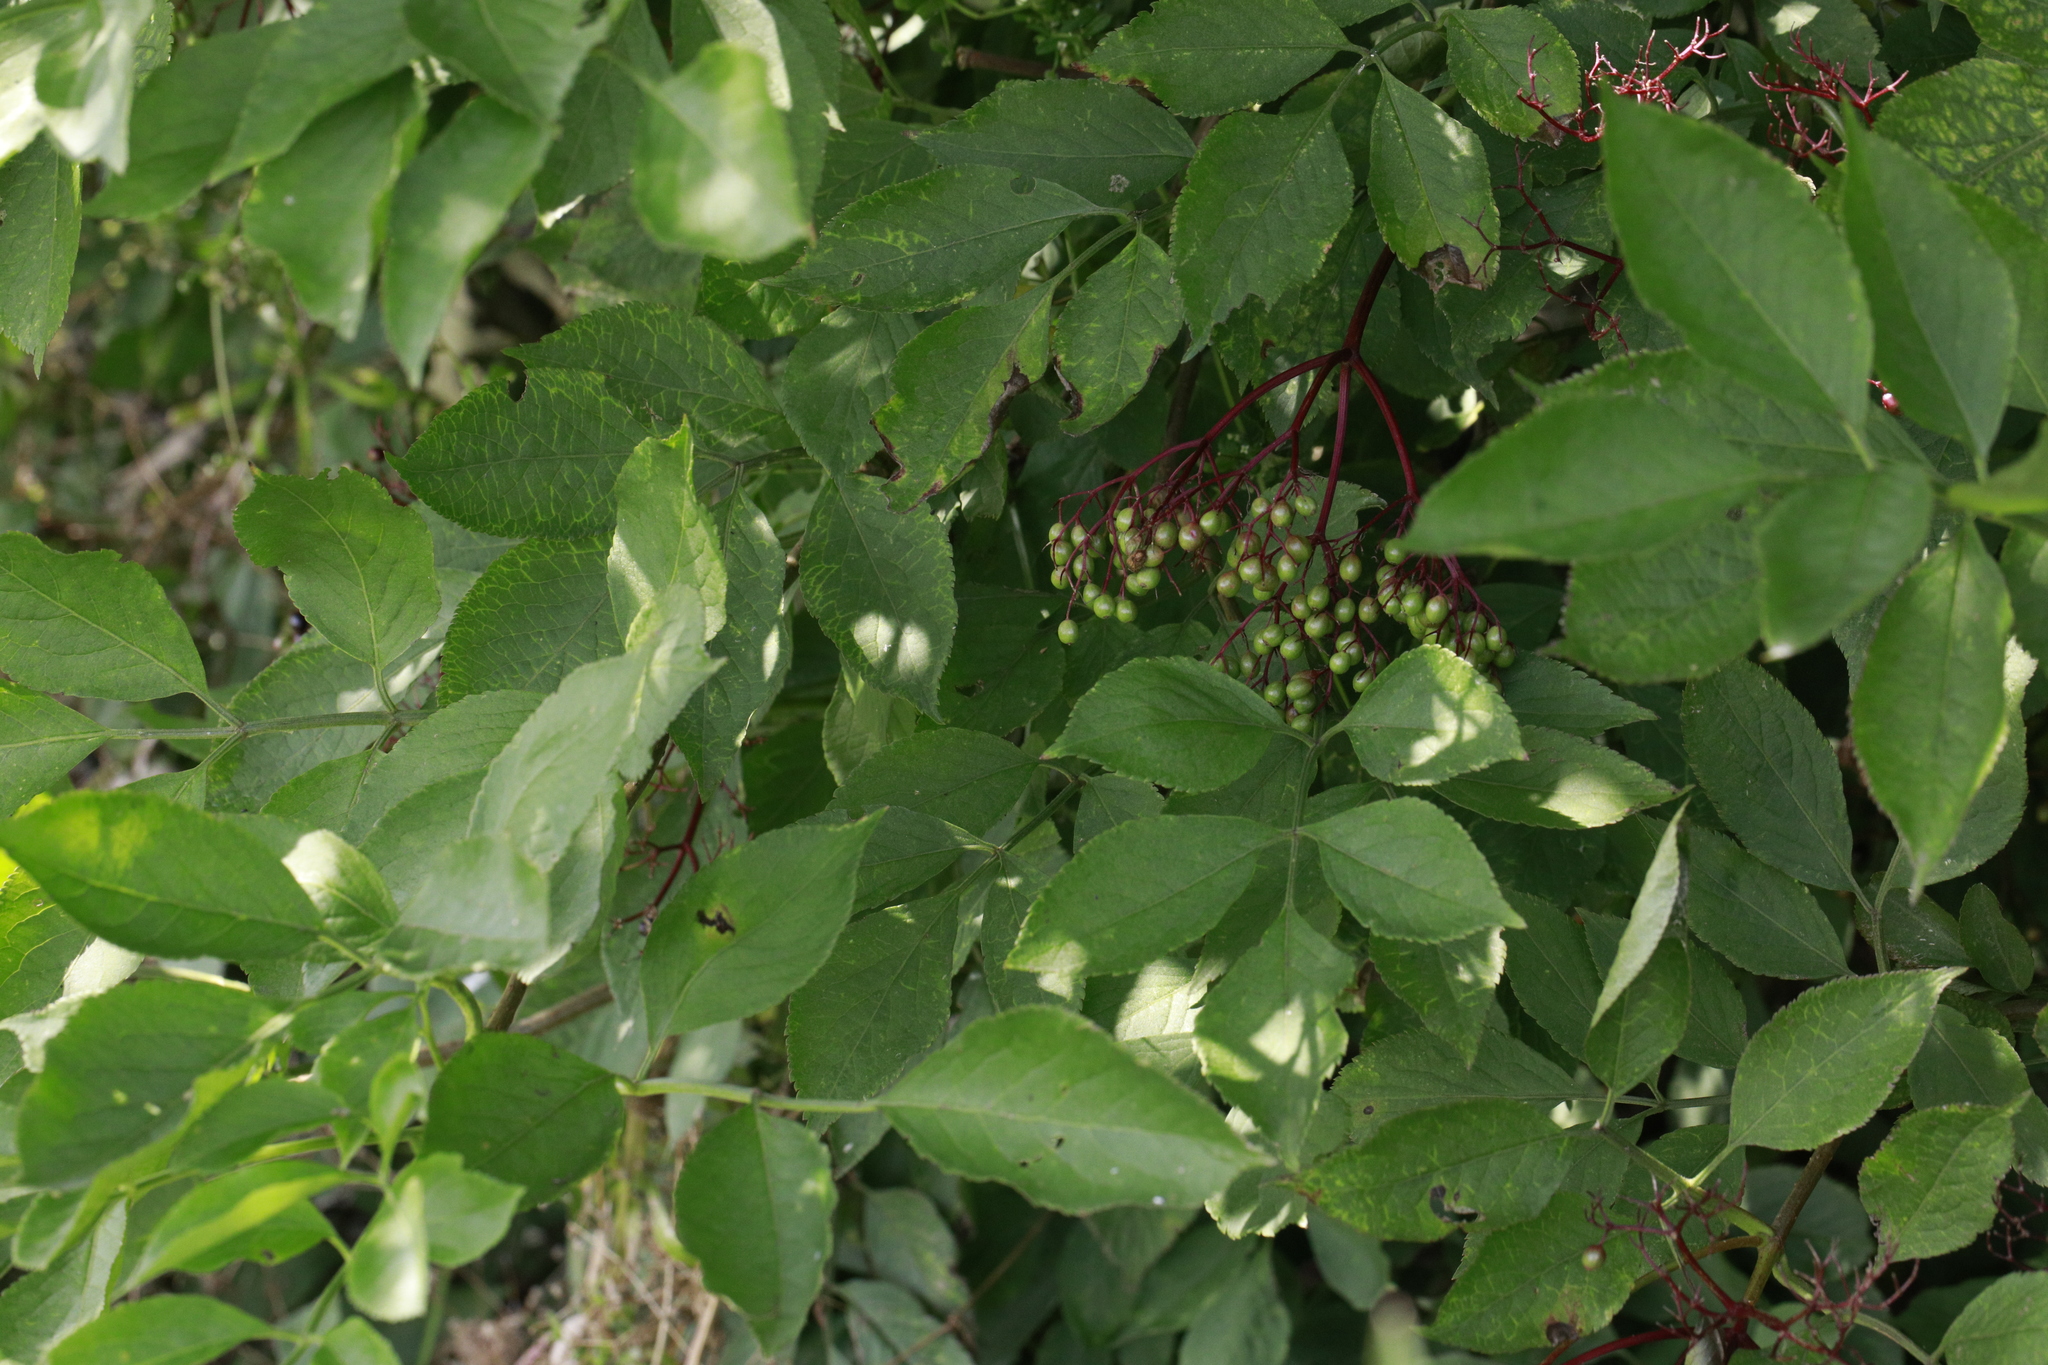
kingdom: Plantae
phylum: Tracheophyta
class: Magnoliopsida
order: Dipsacales
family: Viburnaceae
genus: Sambucus
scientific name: Sambucus nigra
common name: Elder
